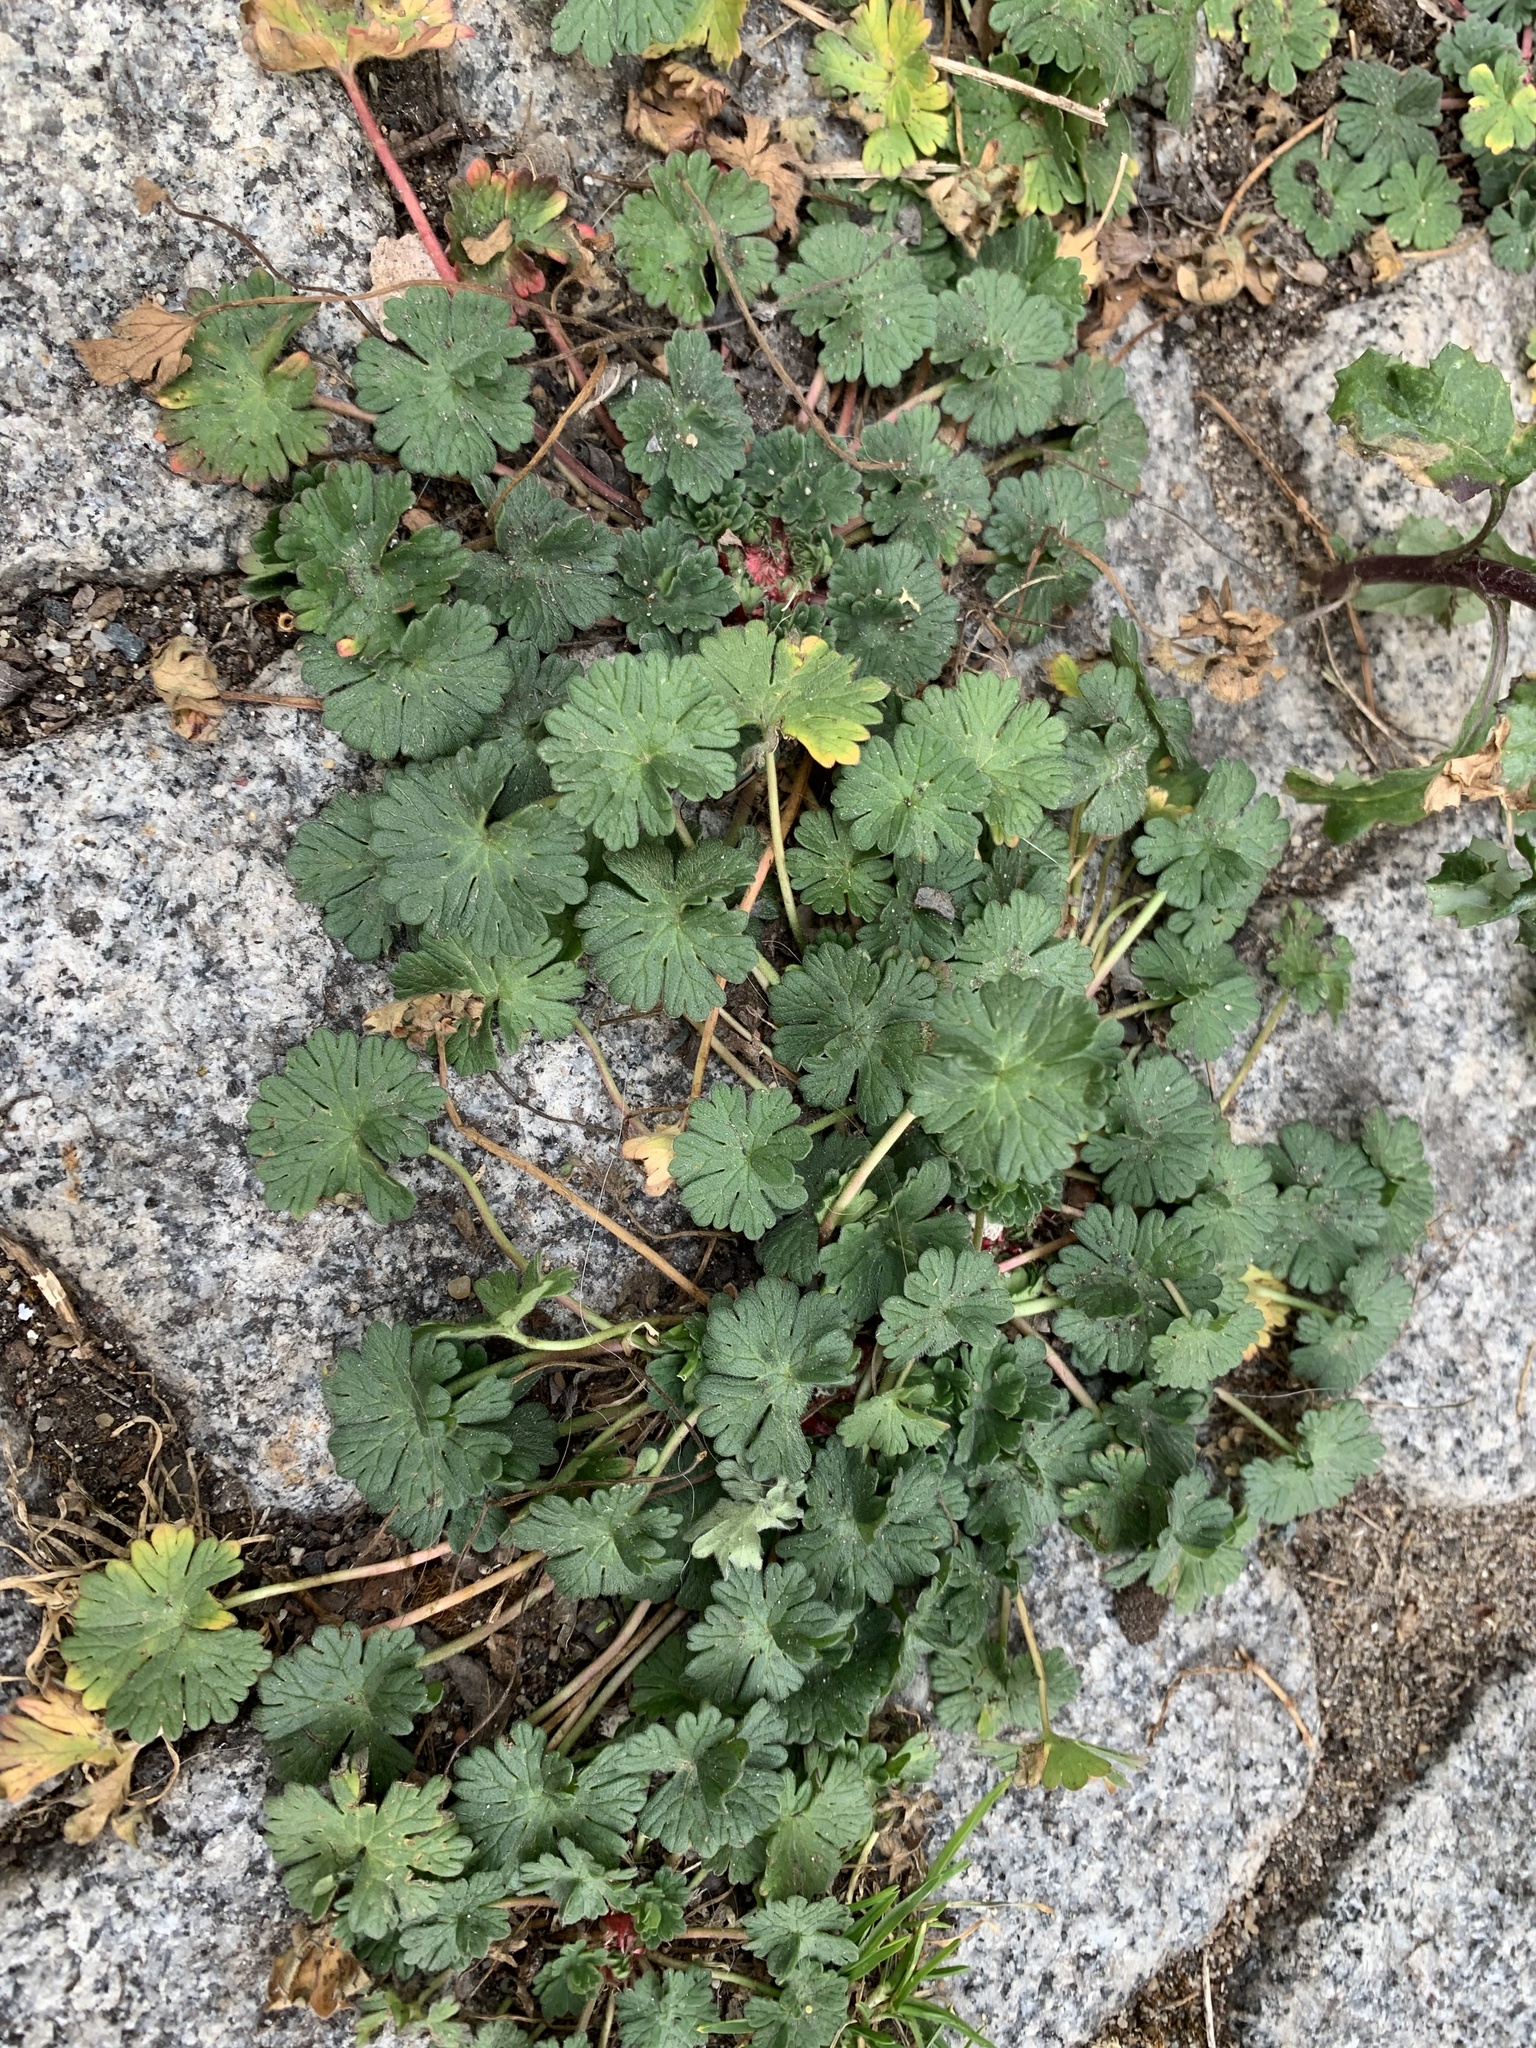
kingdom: Plantae
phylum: Tracheophyta
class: Magnoliopsida
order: Geraniales
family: Geraniaceae
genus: Geranium
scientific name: Geranium pusillum
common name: Small geranium
